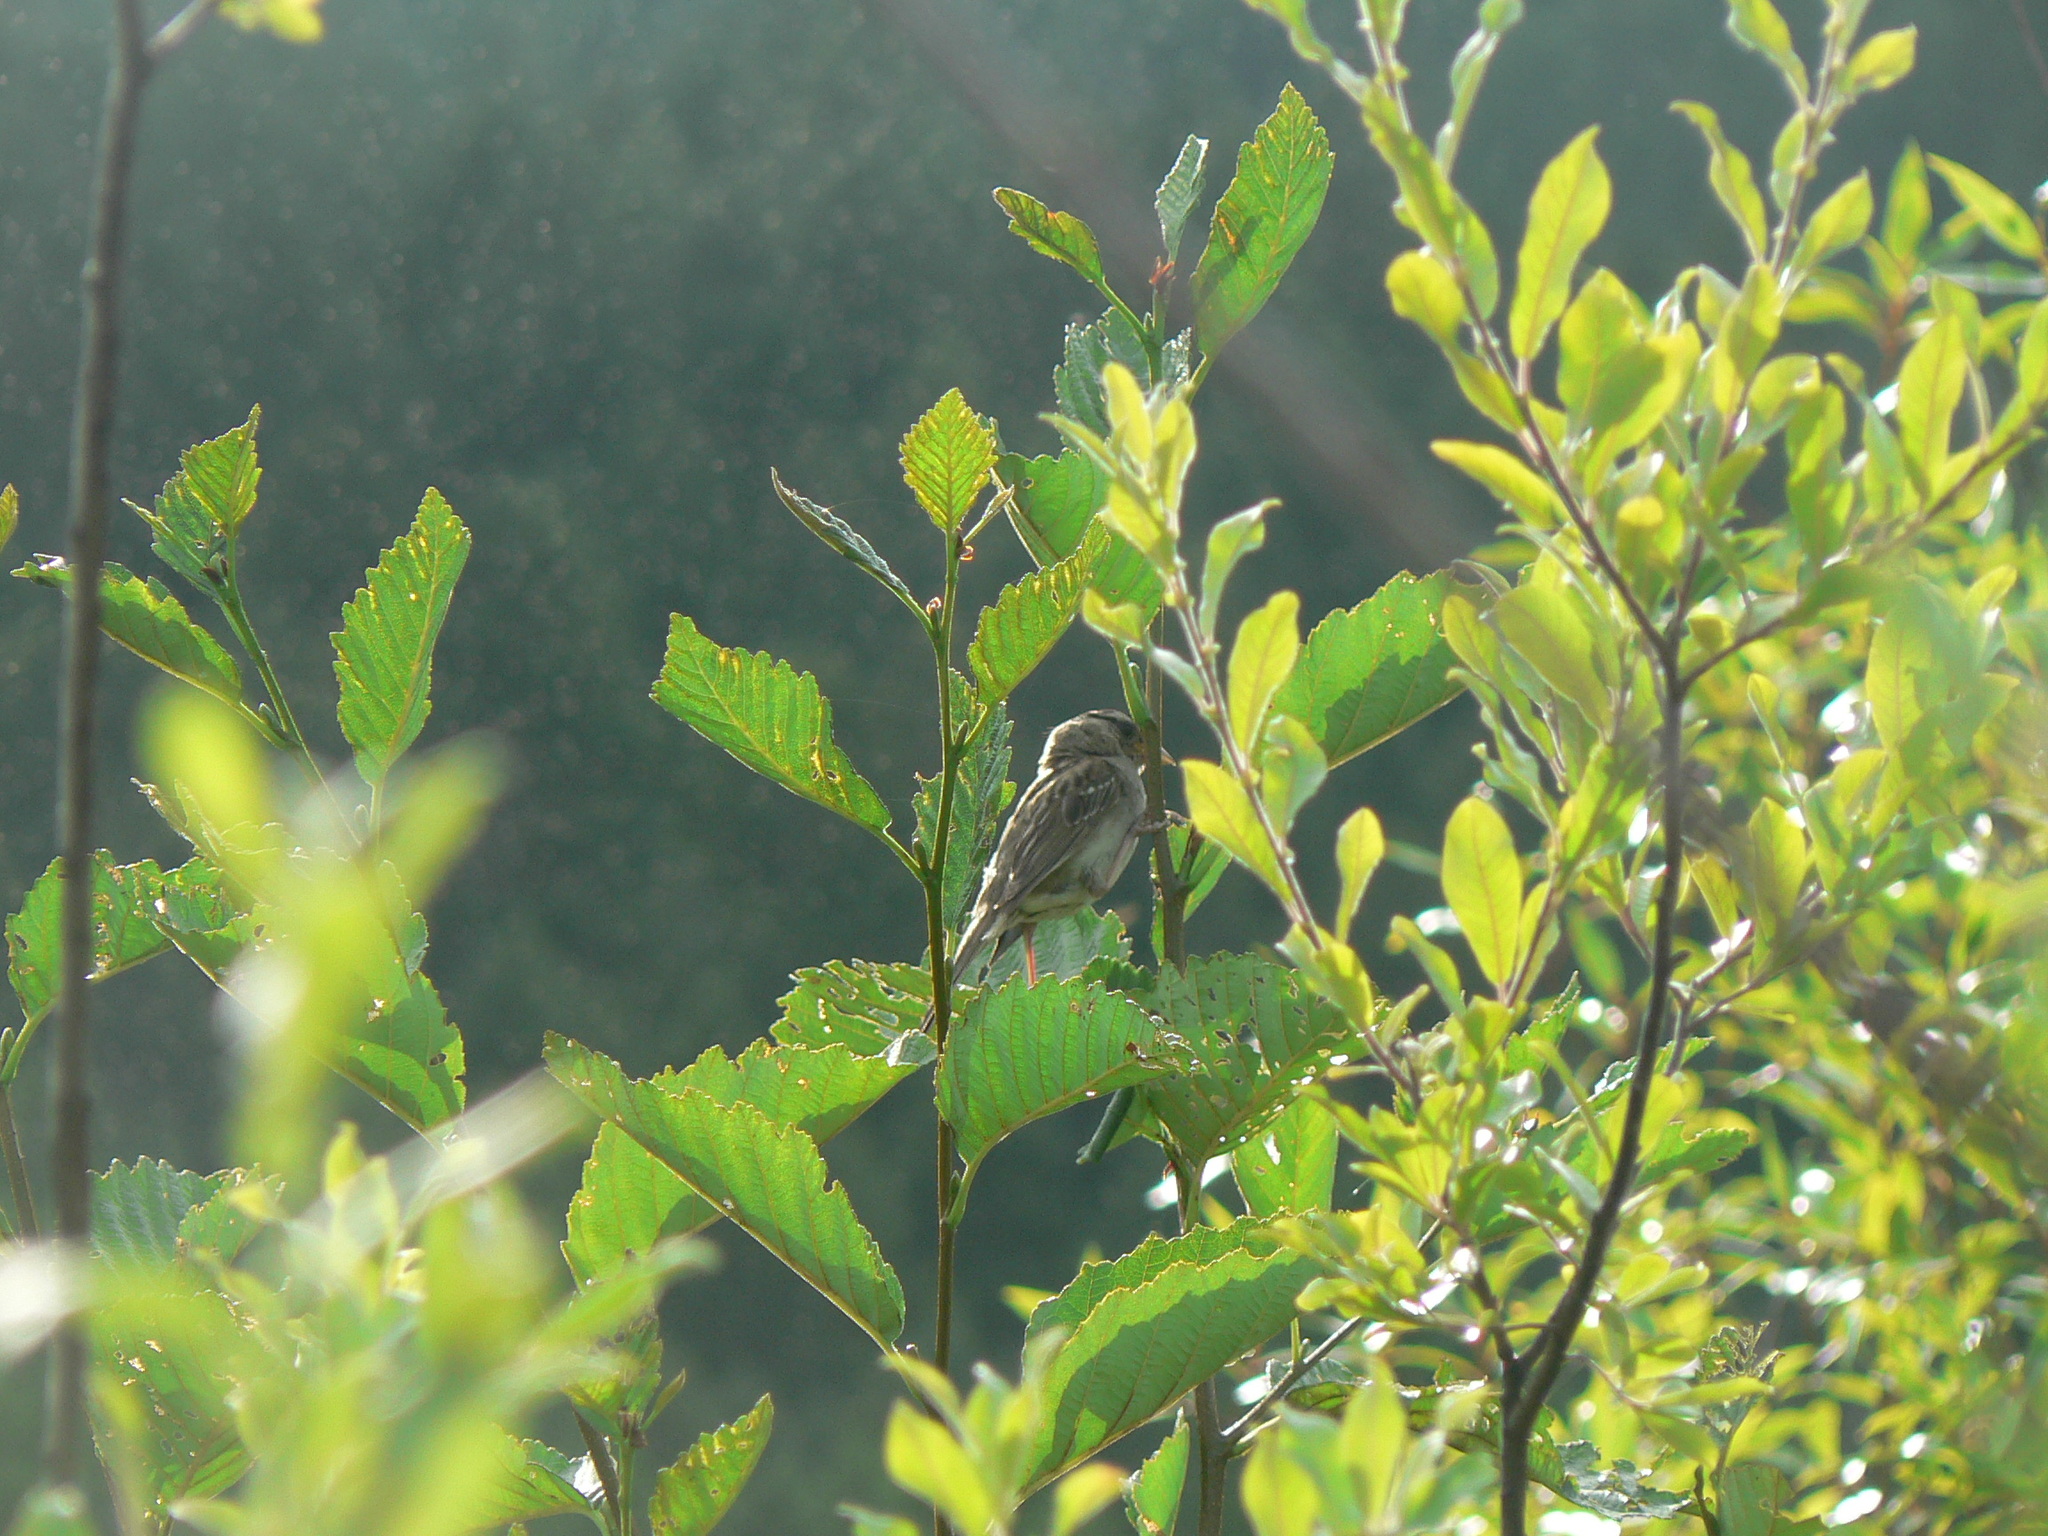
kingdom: Animalia
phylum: Chordata
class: Aves
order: Passeriformes
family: Passerellidae
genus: Zonotrichia
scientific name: Zonotrichia leucophrys
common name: White-crowned sparrow
